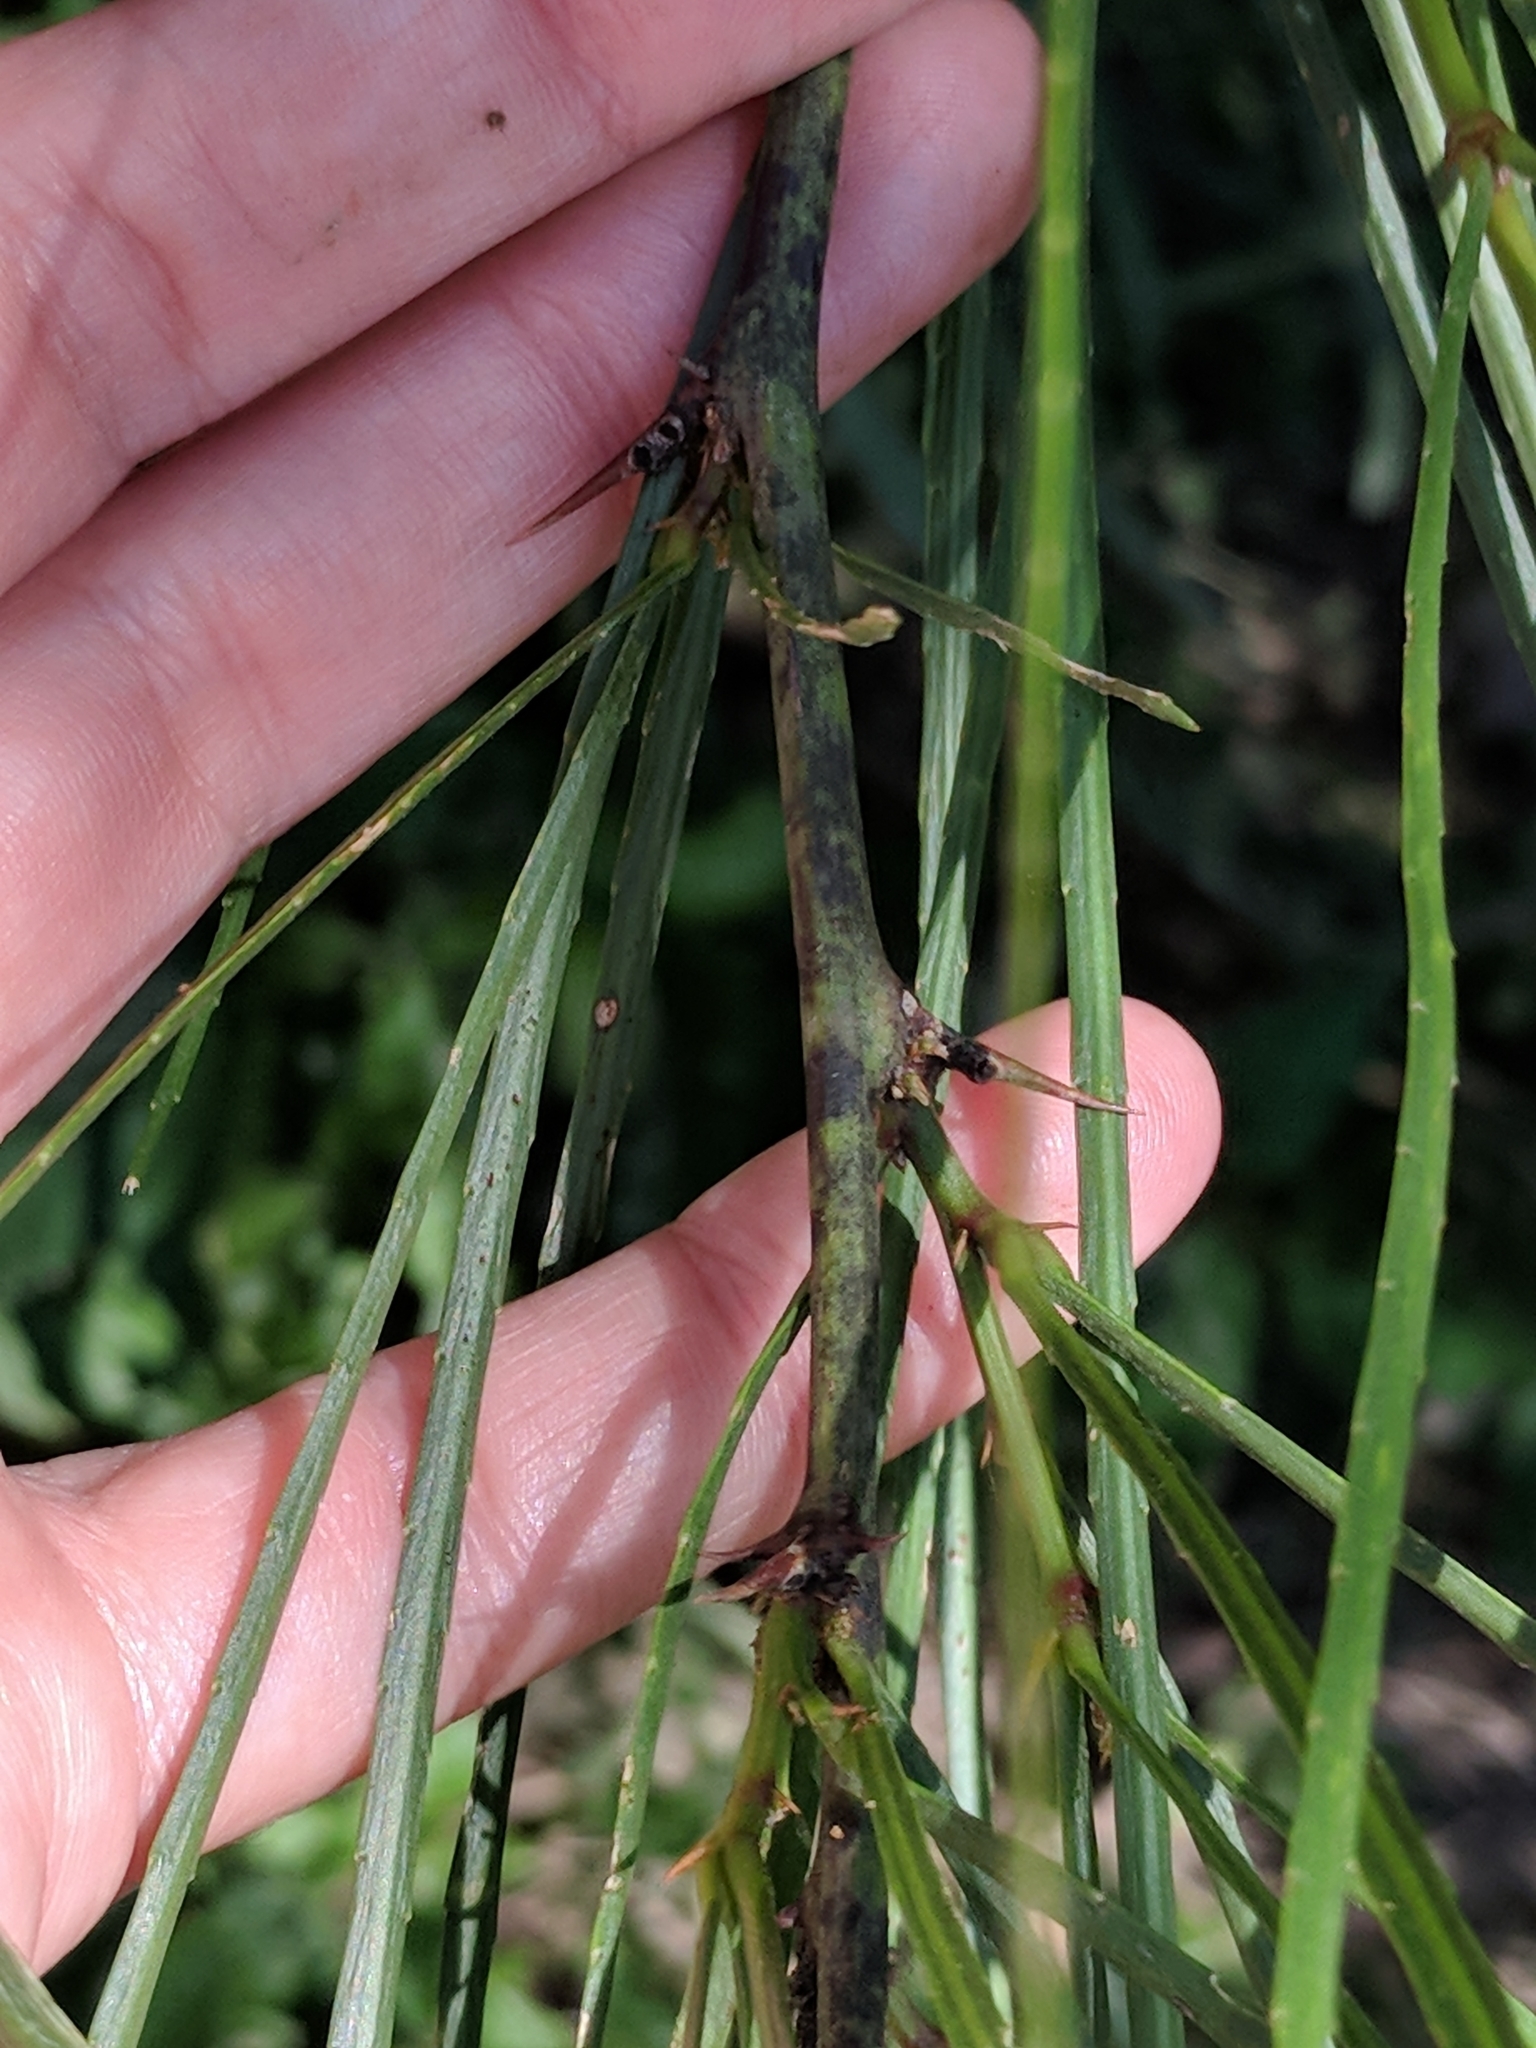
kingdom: Plantae
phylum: Tracheophyta
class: Magnoliopsida
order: Fabales
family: Fabaceae
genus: Parkinsonia
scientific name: Parkinsonia aculeata
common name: Jerusalem thorn
